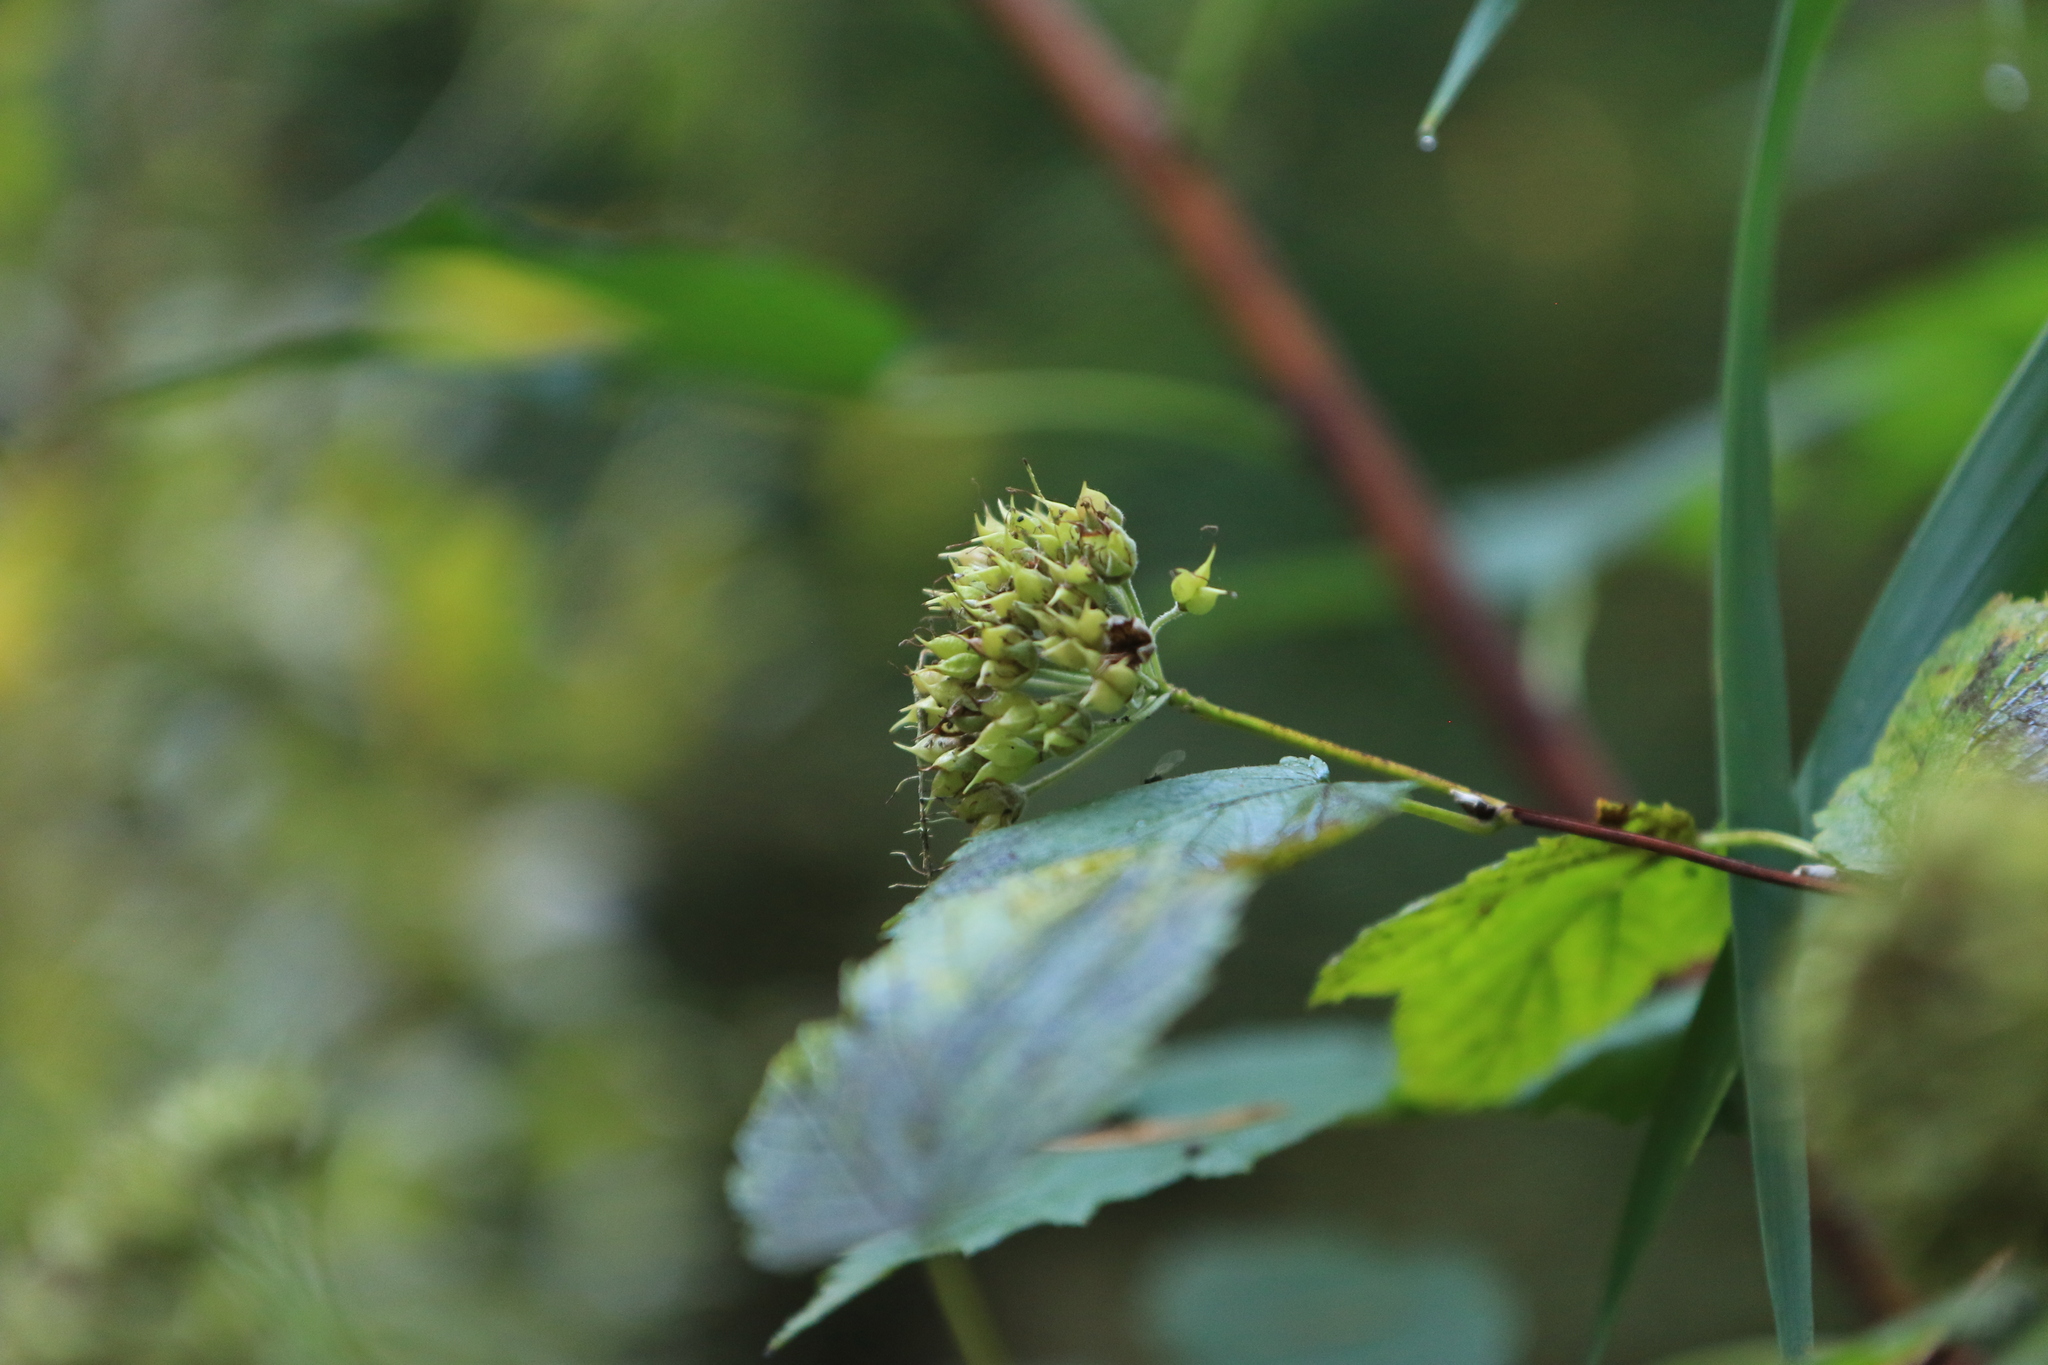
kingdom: Plantae
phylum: Tracheophyta
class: Magnoliopsida
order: Rosales
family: Rosaceae
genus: Physocarpus
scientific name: Physocarpus capitatus
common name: Pacific ninebark
